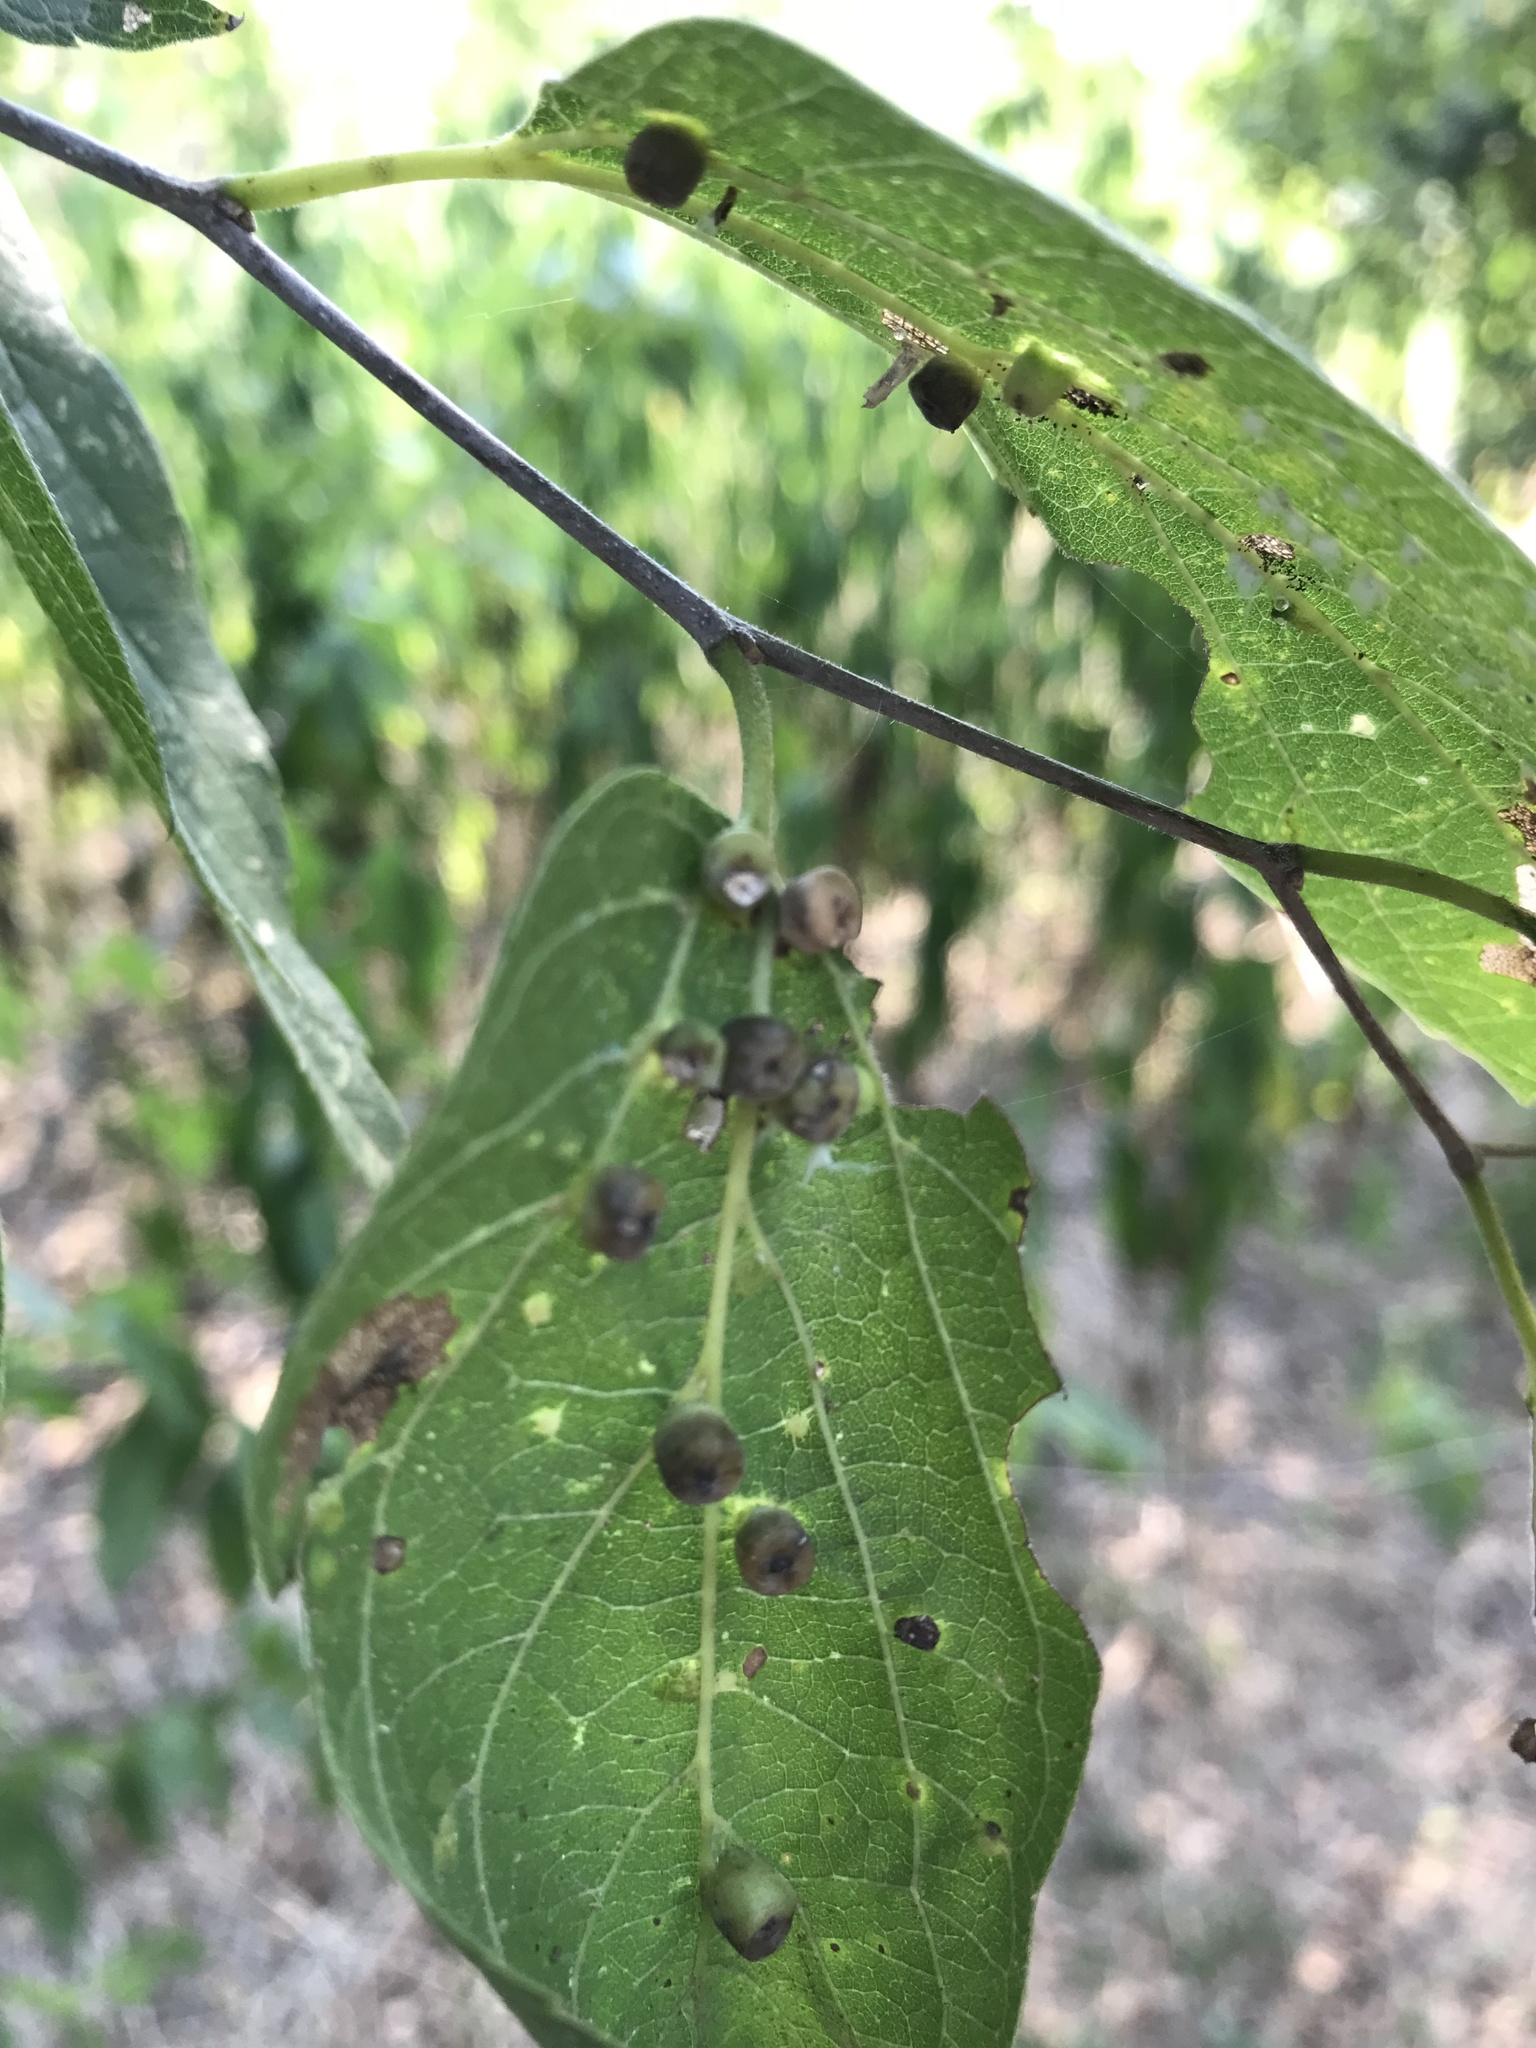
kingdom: Animalia
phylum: Arthropoda
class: Insecta
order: Hemiptera
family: Aphalaridae
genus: Pachypsylla
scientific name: Pachypsylla celtidismamma
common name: Hackberry nipplegall psyllid
